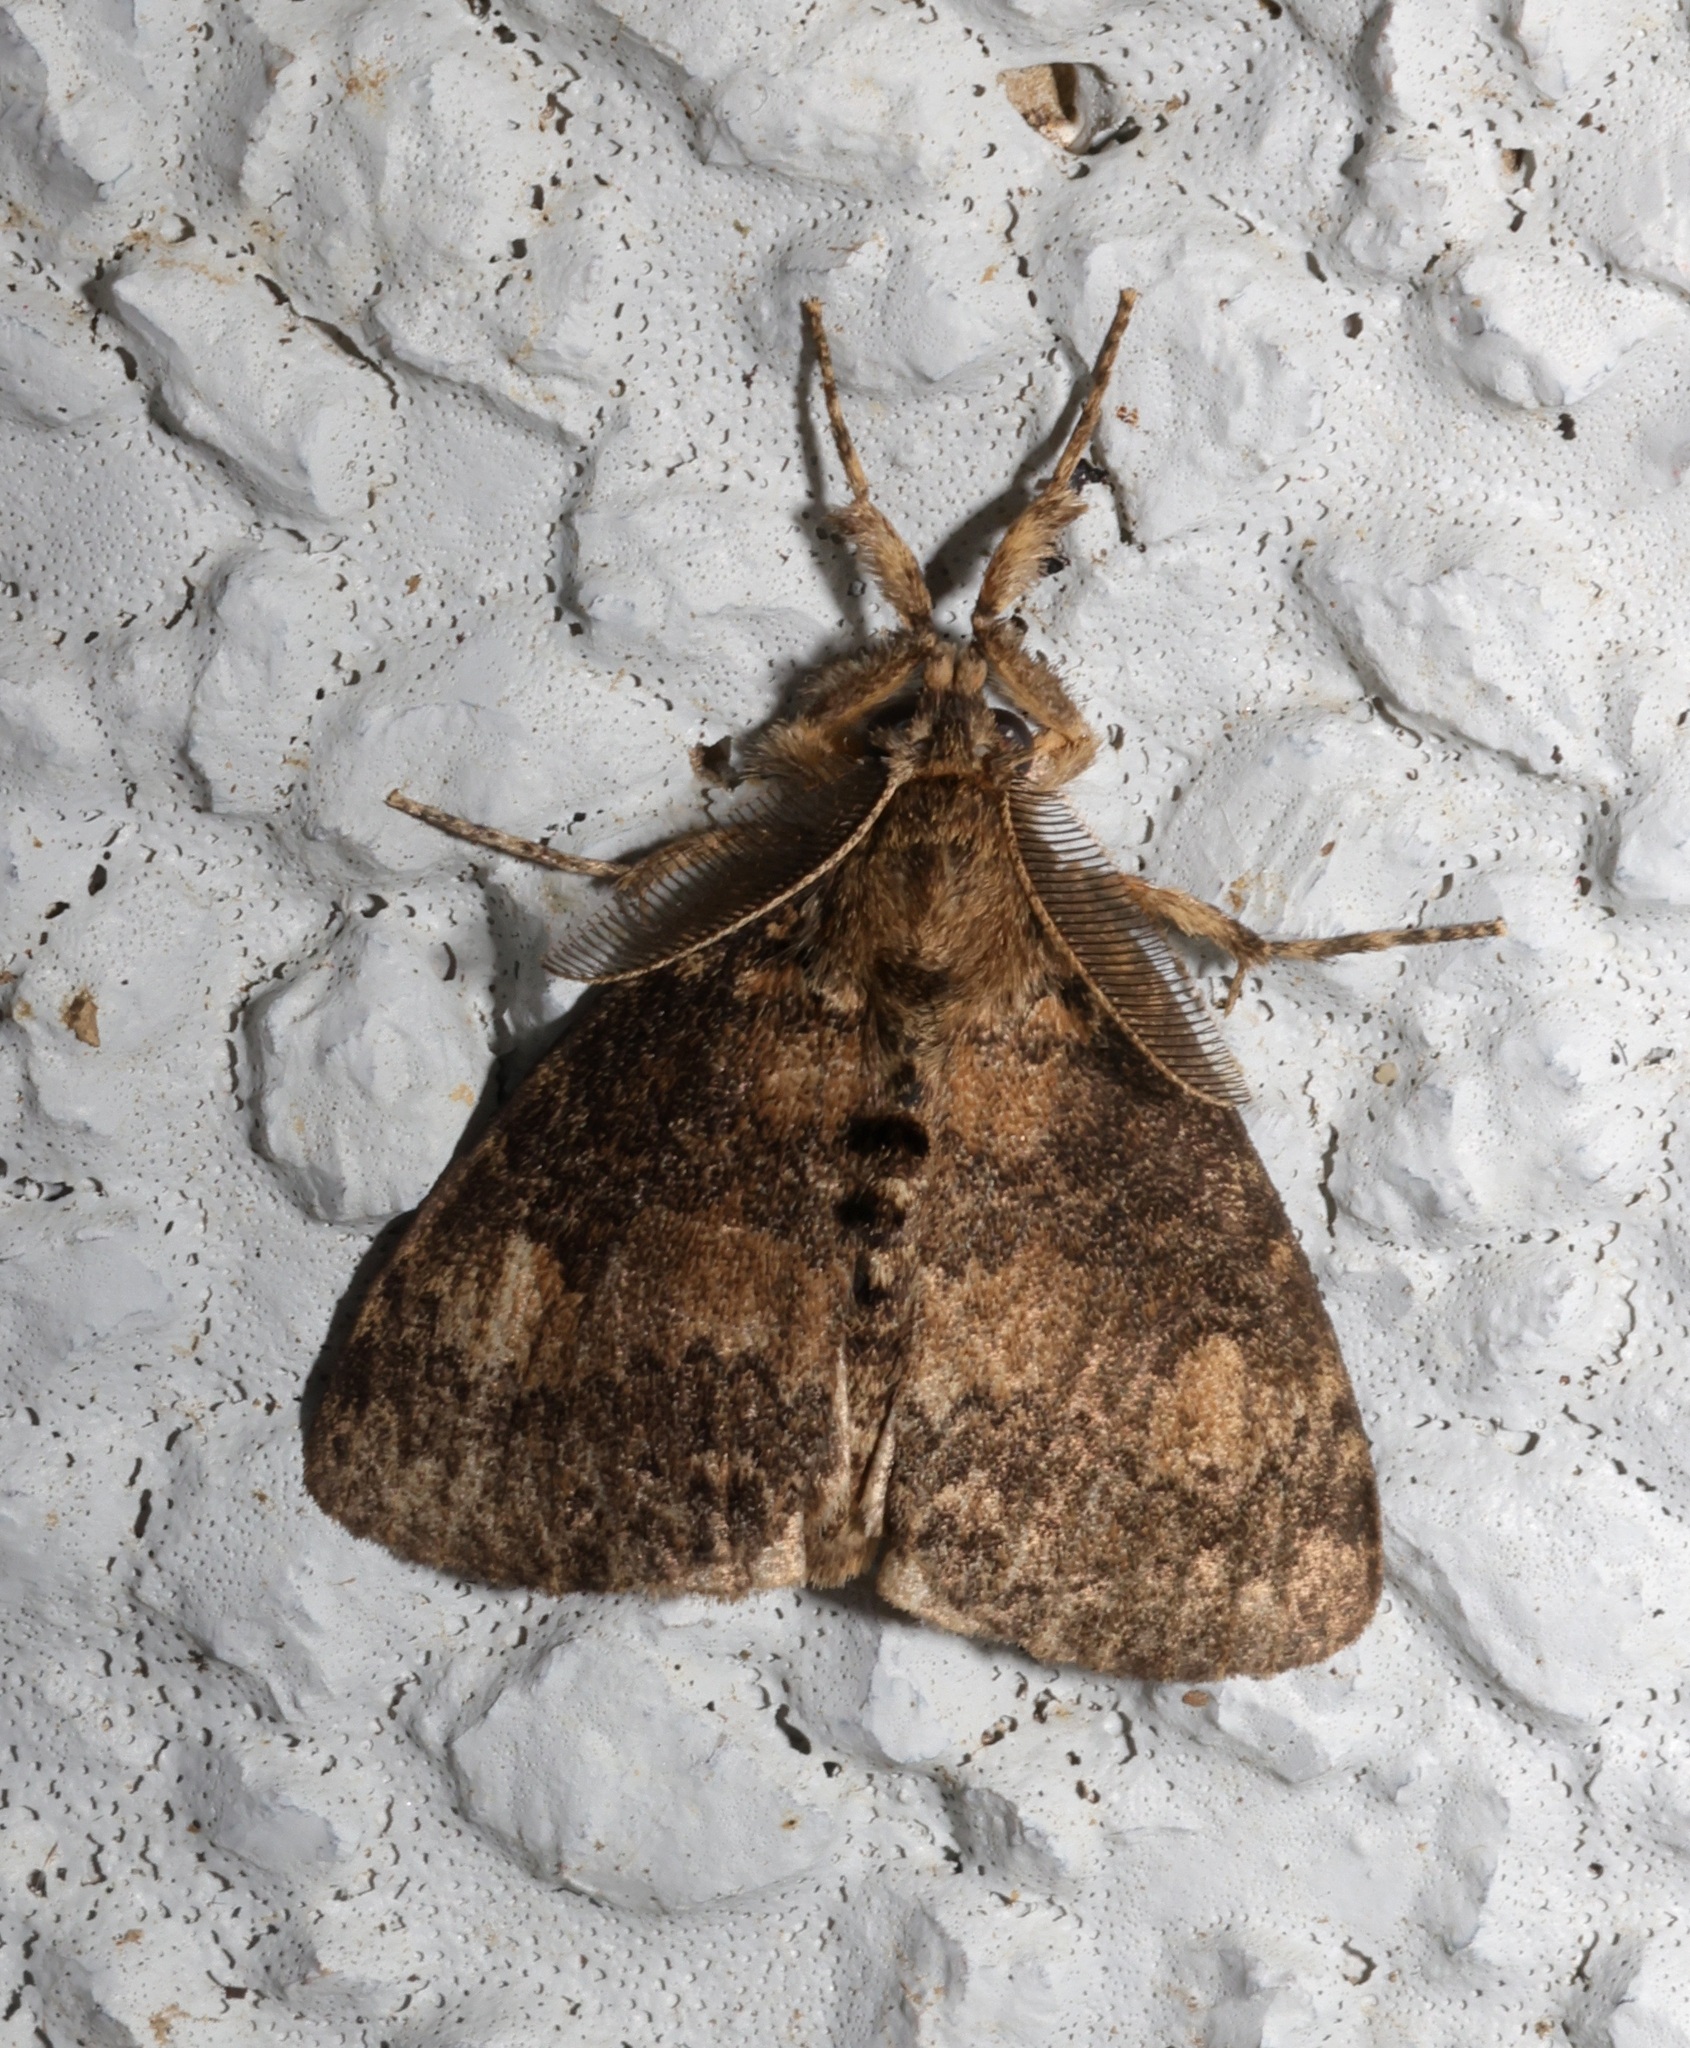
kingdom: Animalia
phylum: Arthropoda
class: Insecta
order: Lepidoptera
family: Erebidae
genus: Dasychira
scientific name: Dasychira nigritula
